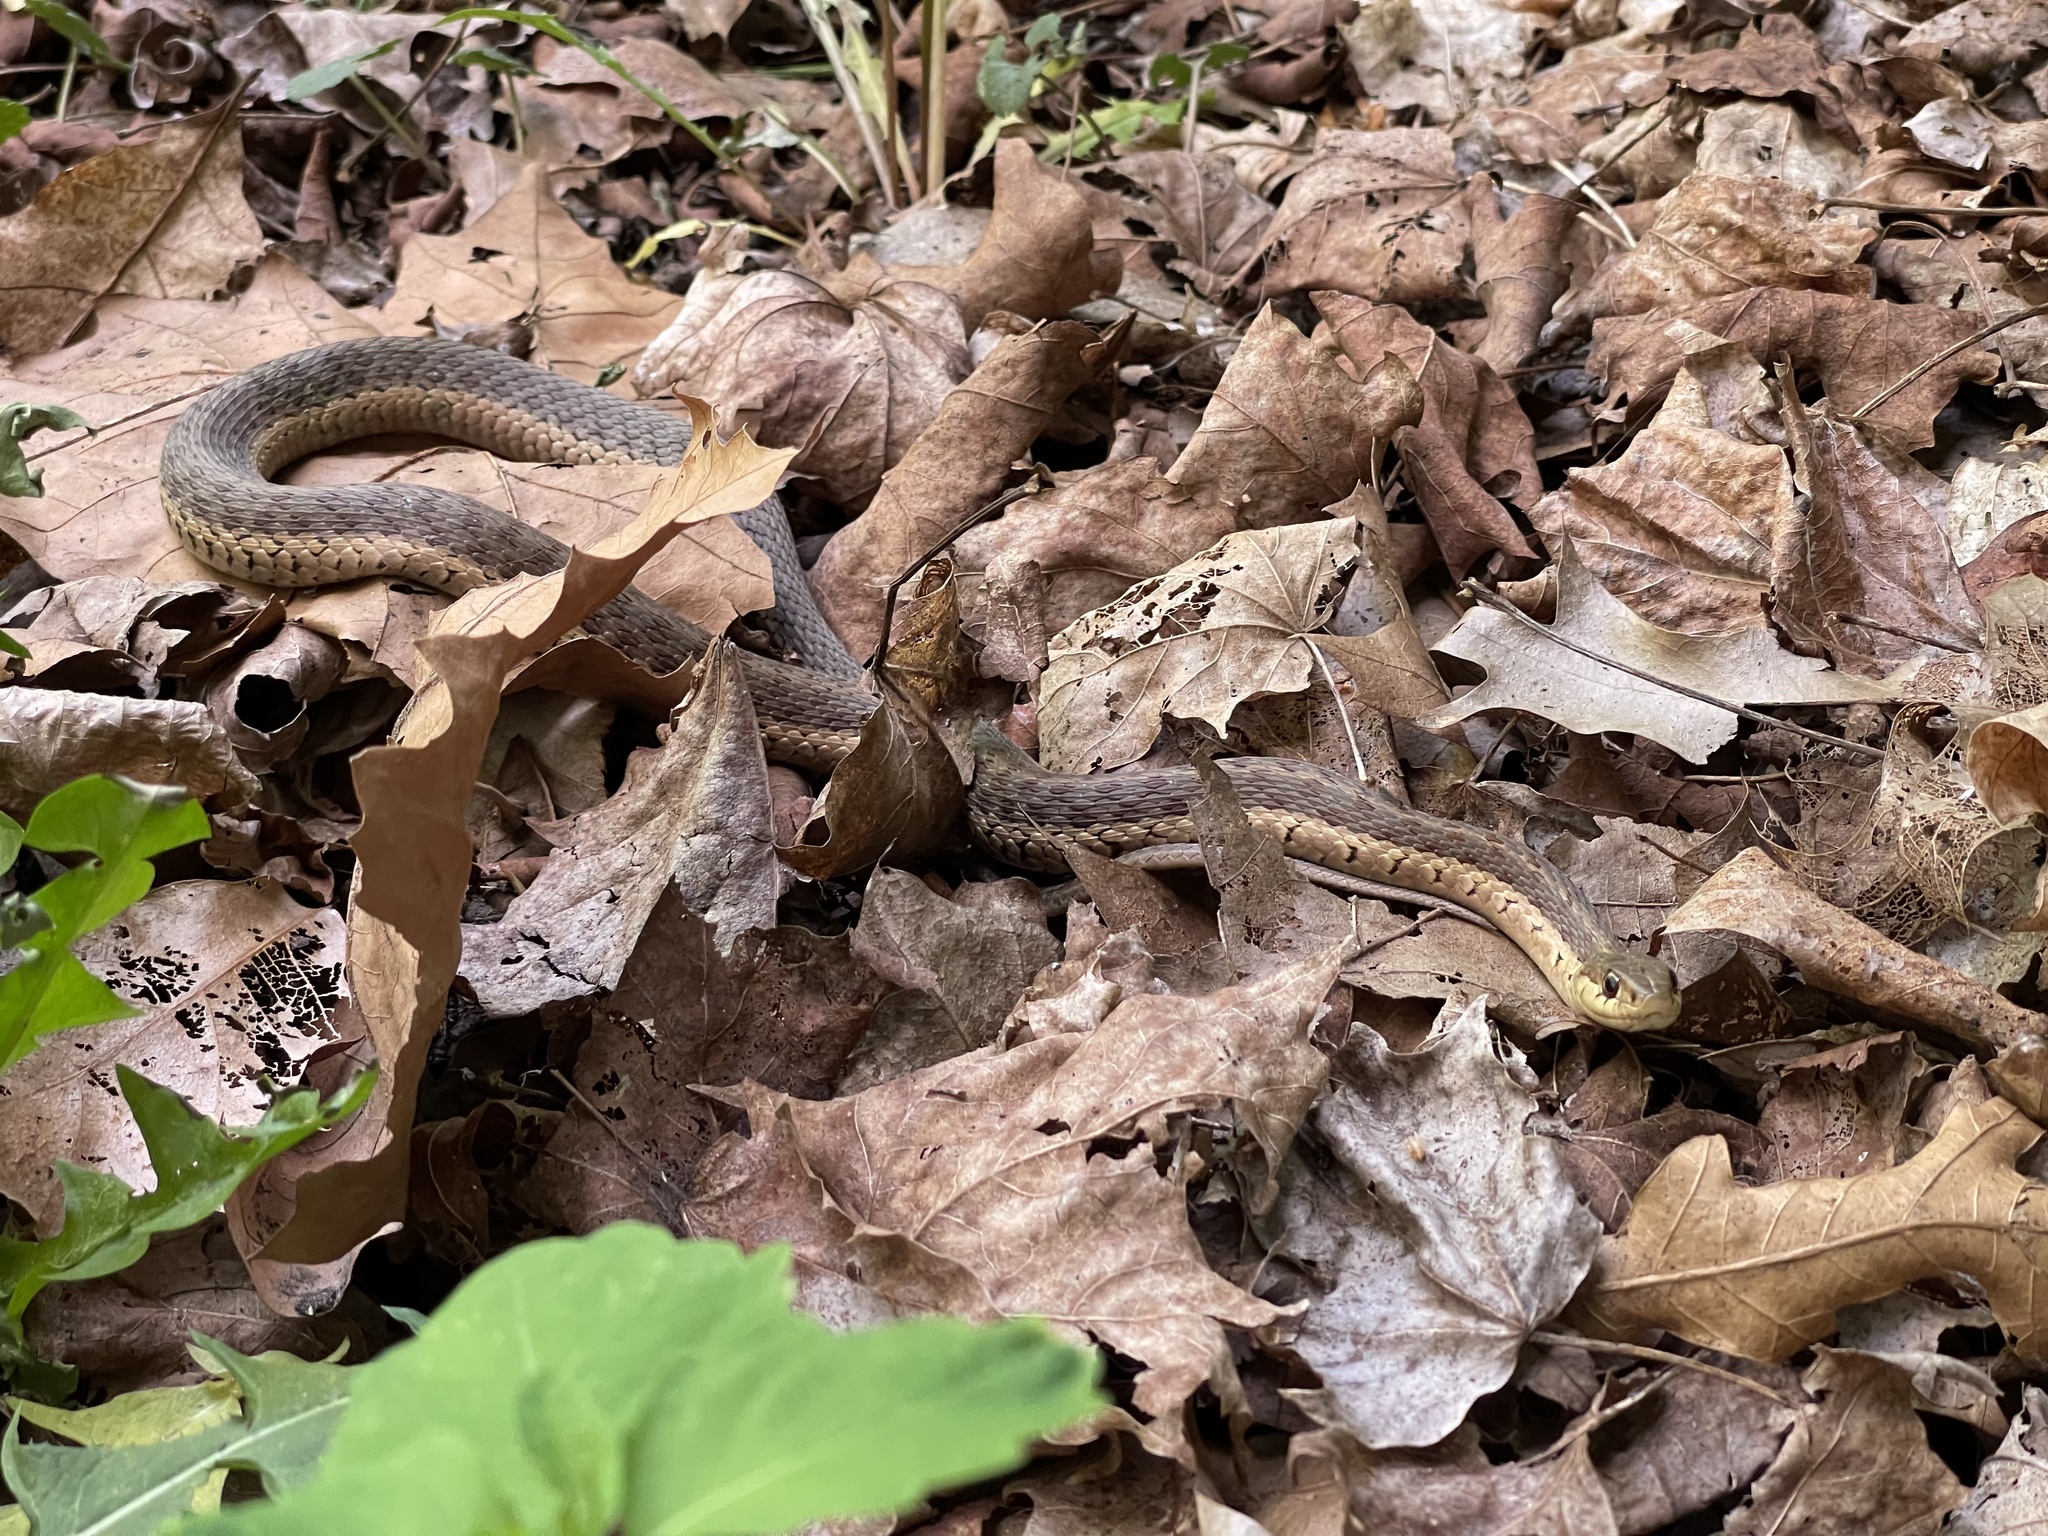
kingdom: Animalia
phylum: Chordata
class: Squamata
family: Colubridae
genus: Thamnophis
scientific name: Thamnophis sirtalis
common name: Common garter snake
